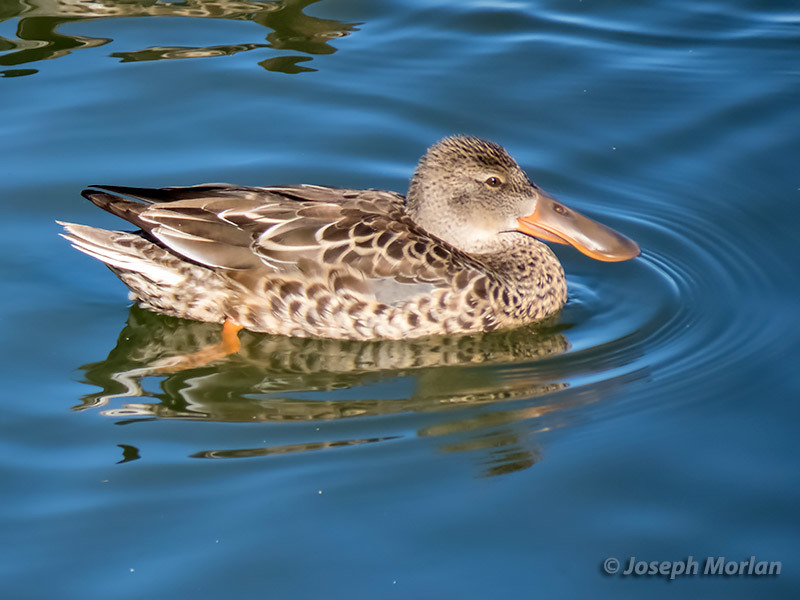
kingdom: Animalia
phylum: Chordata
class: Aves
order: Anseriformes
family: Anatidae
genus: Spatula
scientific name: Spatula clypeata
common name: Northern shoveler
